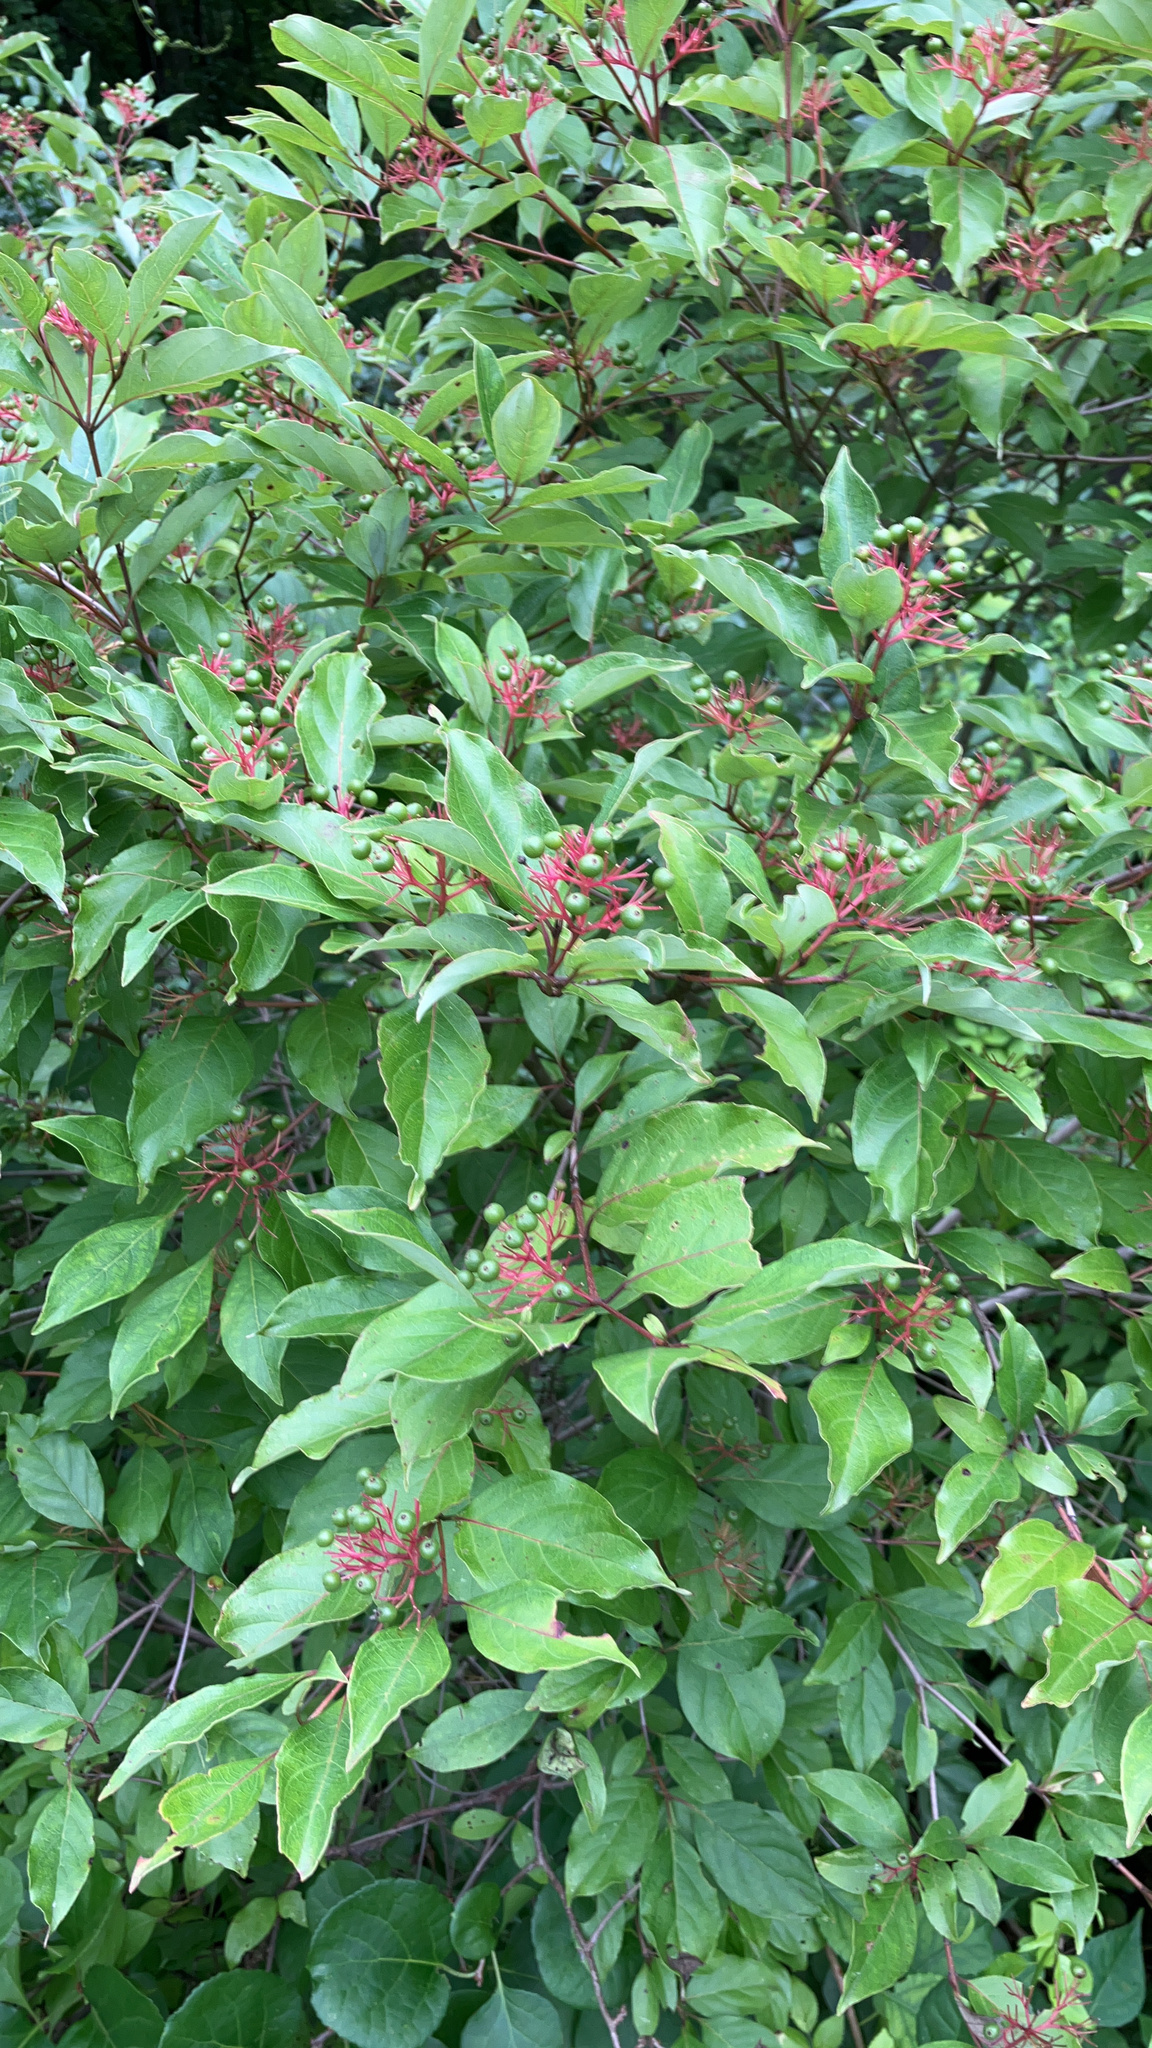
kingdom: Plantae
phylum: Tracheophyta
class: Magnoliopsida
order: Cornales
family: Cornaceae
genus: Cornus
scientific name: Cornus racemosa
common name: Panicled dogwood
